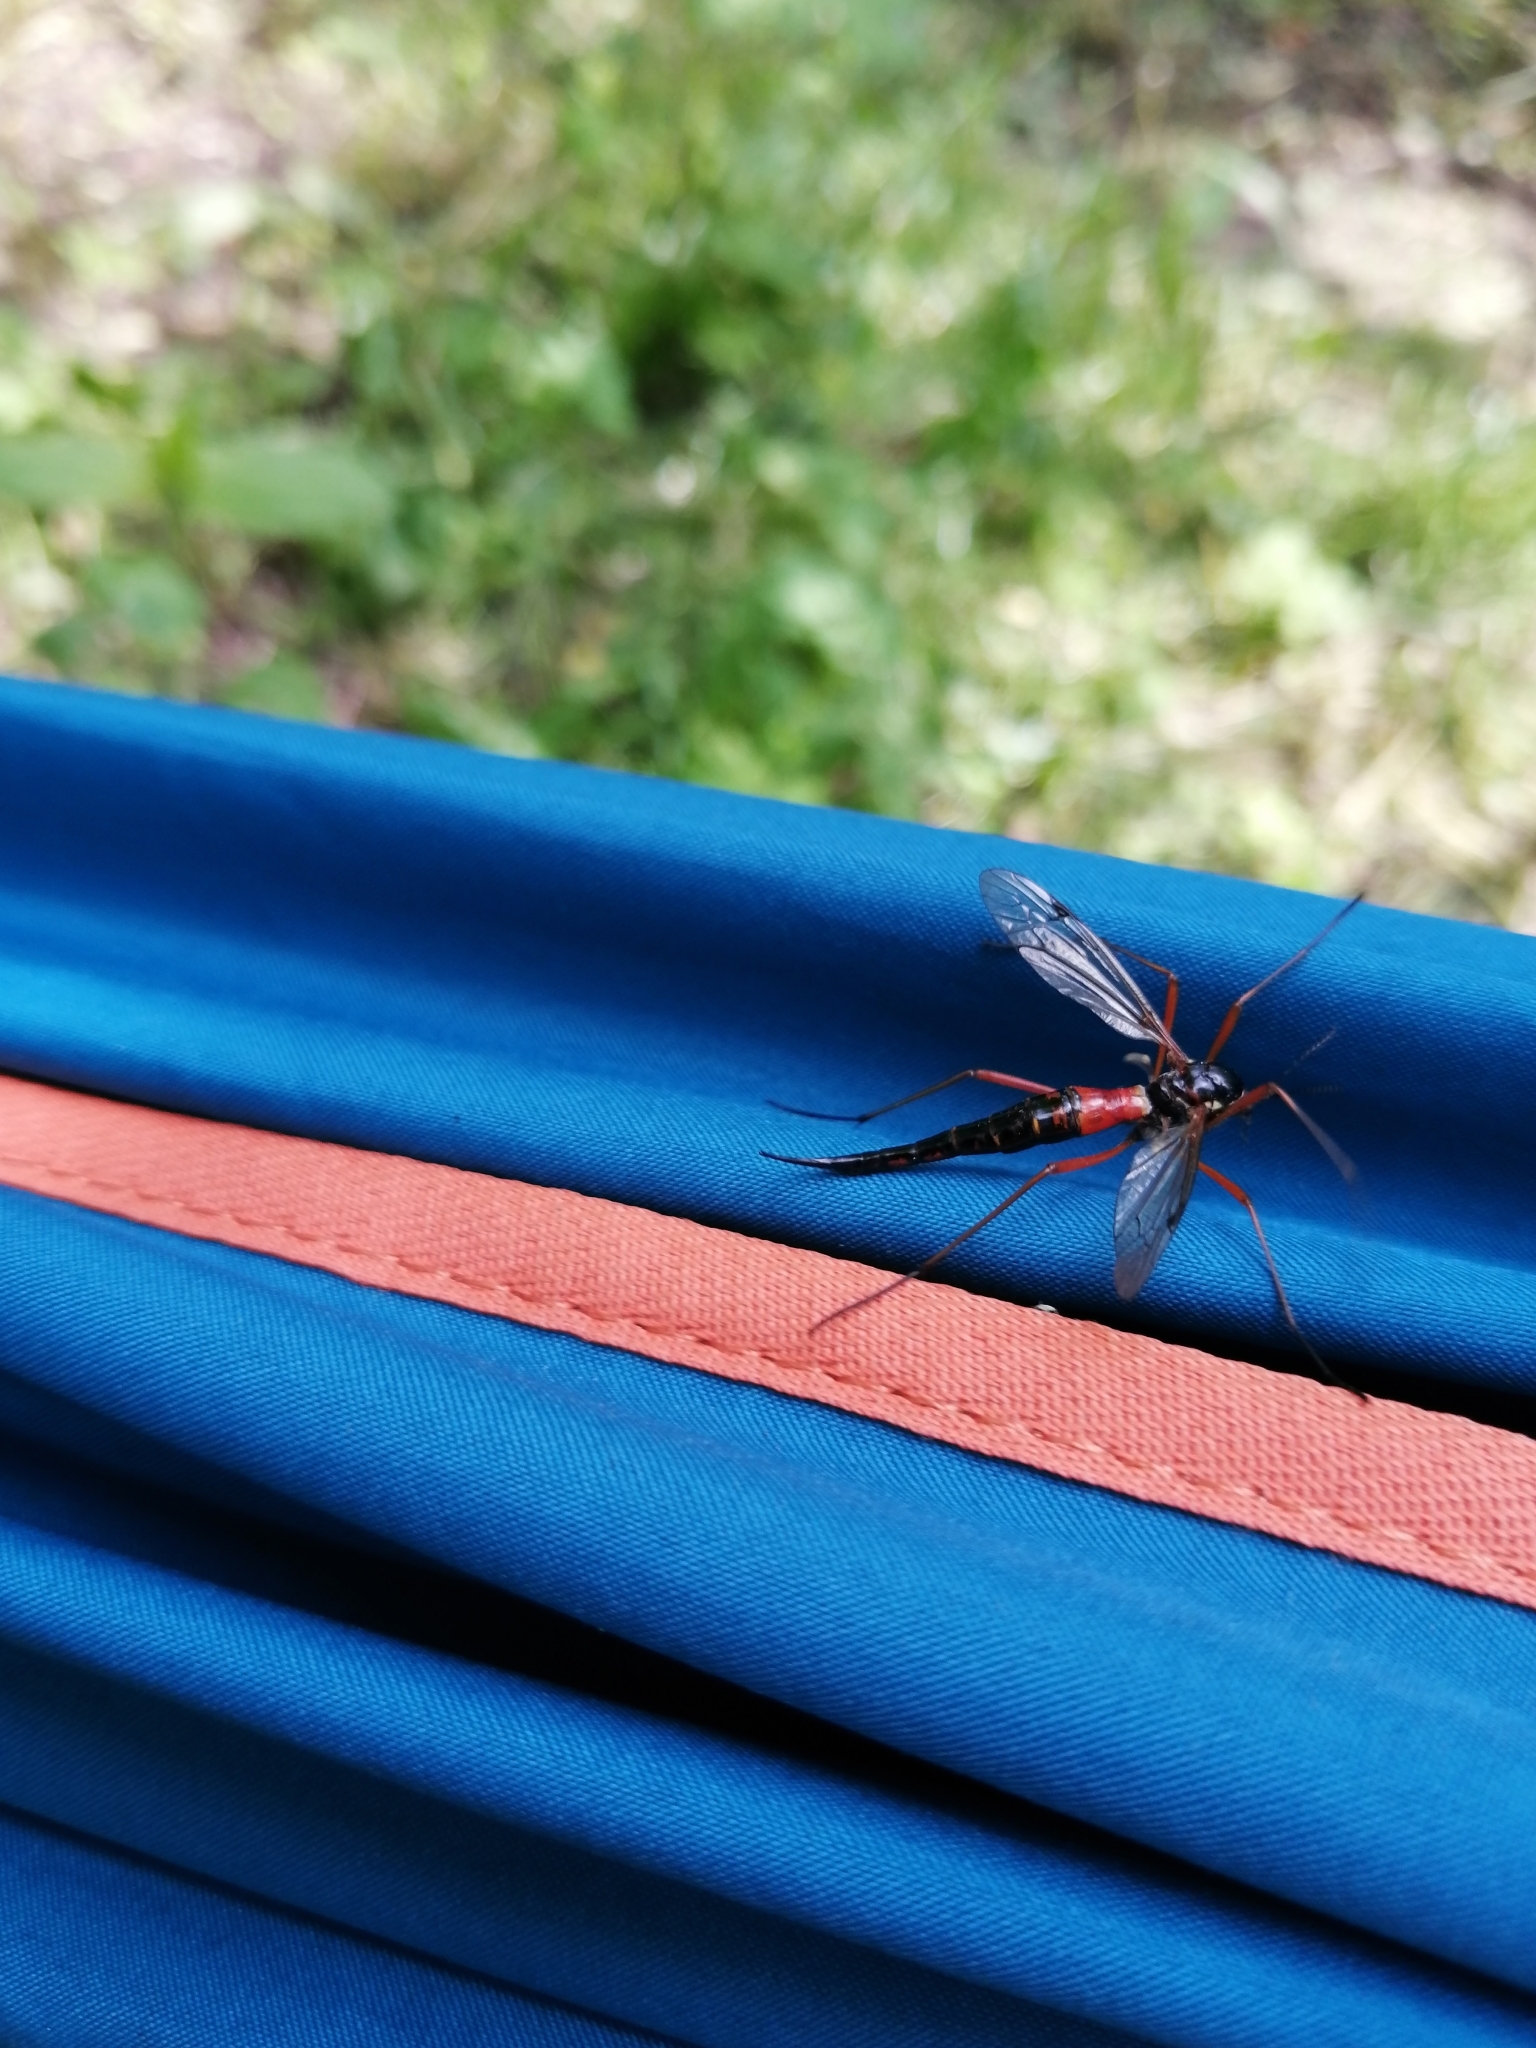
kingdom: Animalia
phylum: Arthropoda
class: Insecta
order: Diptera
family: Tipulidae
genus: Tanyptera
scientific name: Tanyptera atrata
